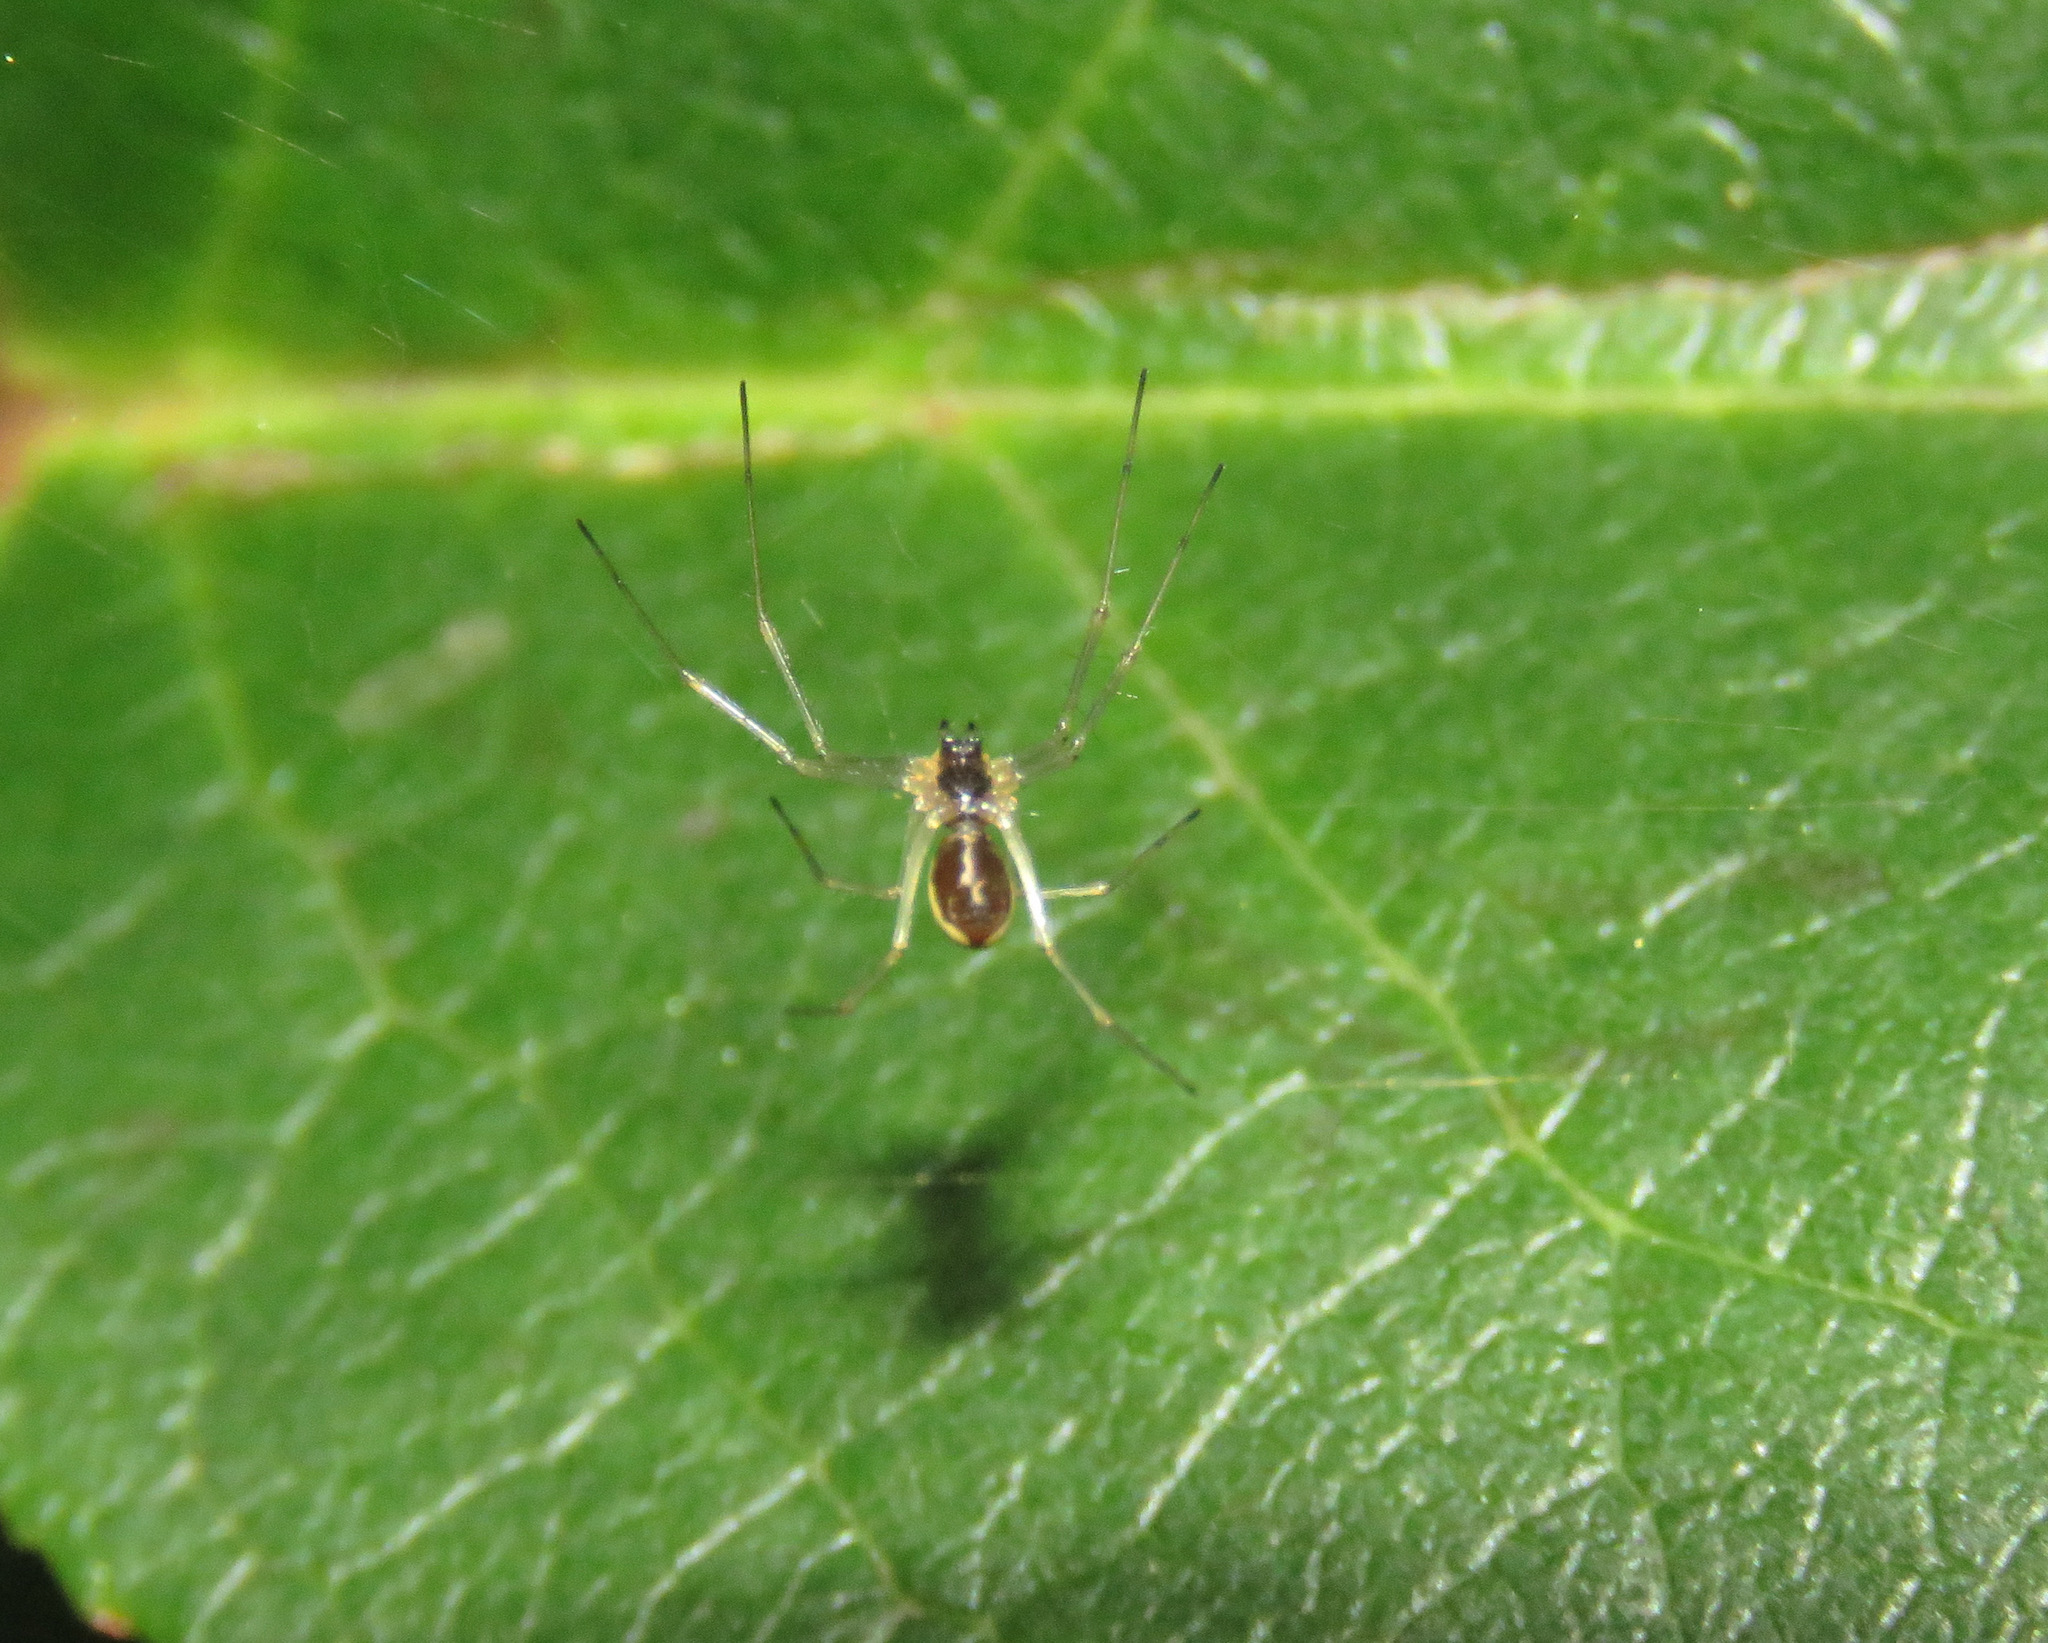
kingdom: Animalia
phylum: Arthropoda
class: Arachnida
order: Araneae
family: Linyphiidae
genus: Microlinyphia
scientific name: Microlinyphia dana
